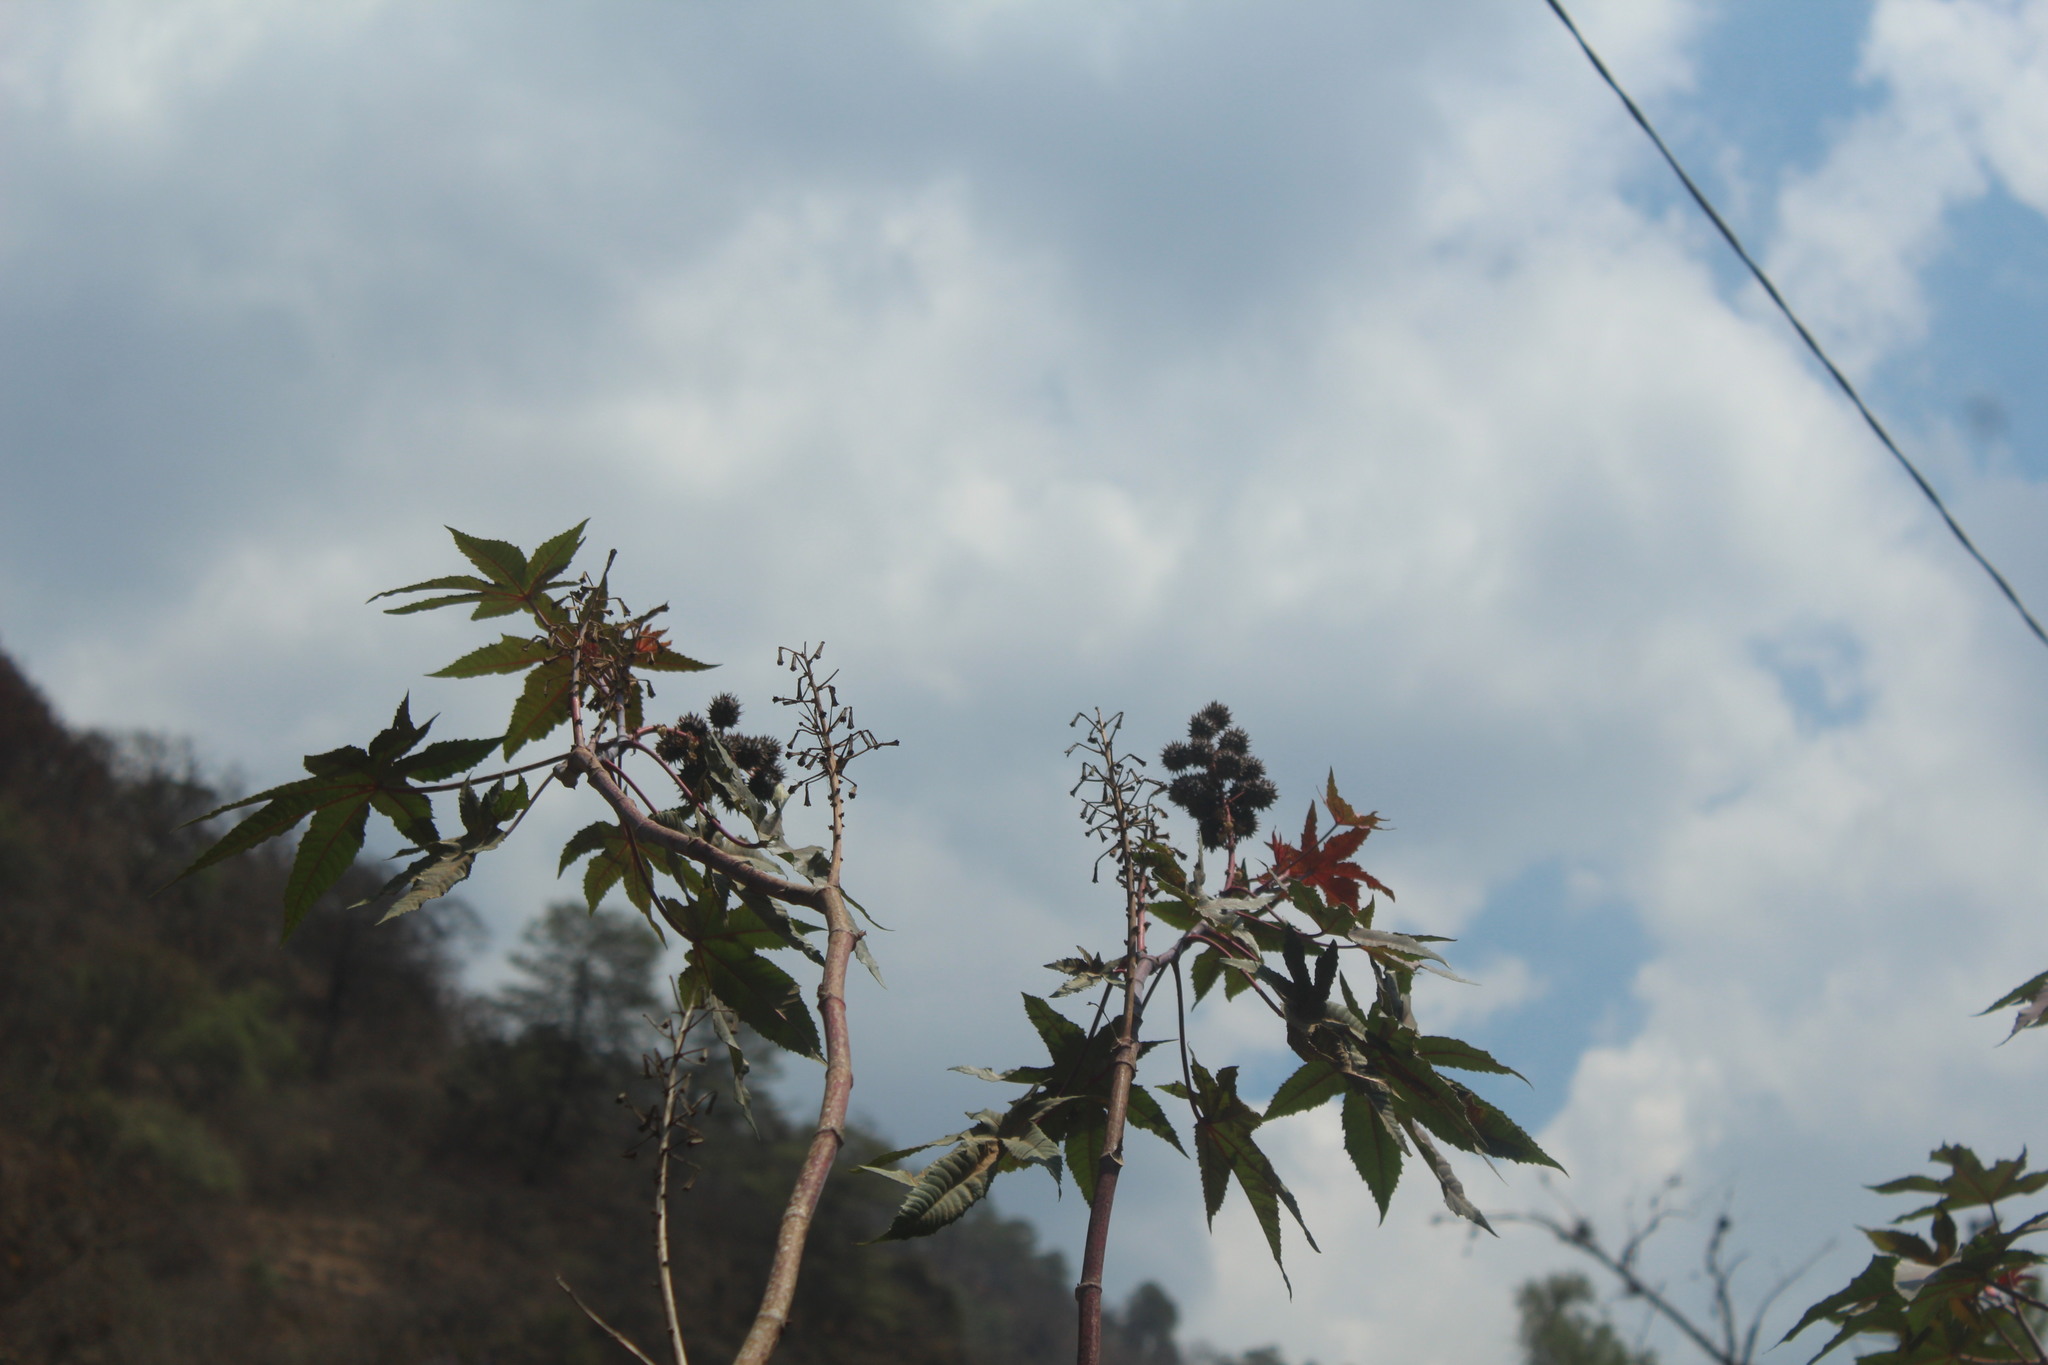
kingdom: Plantae
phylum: Tracheophyta
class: Magnoliopsida
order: Malpighiales
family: Euphorbiaceae
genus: Ricinus
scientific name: Ricinus communis
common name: Castor-oil-plant
